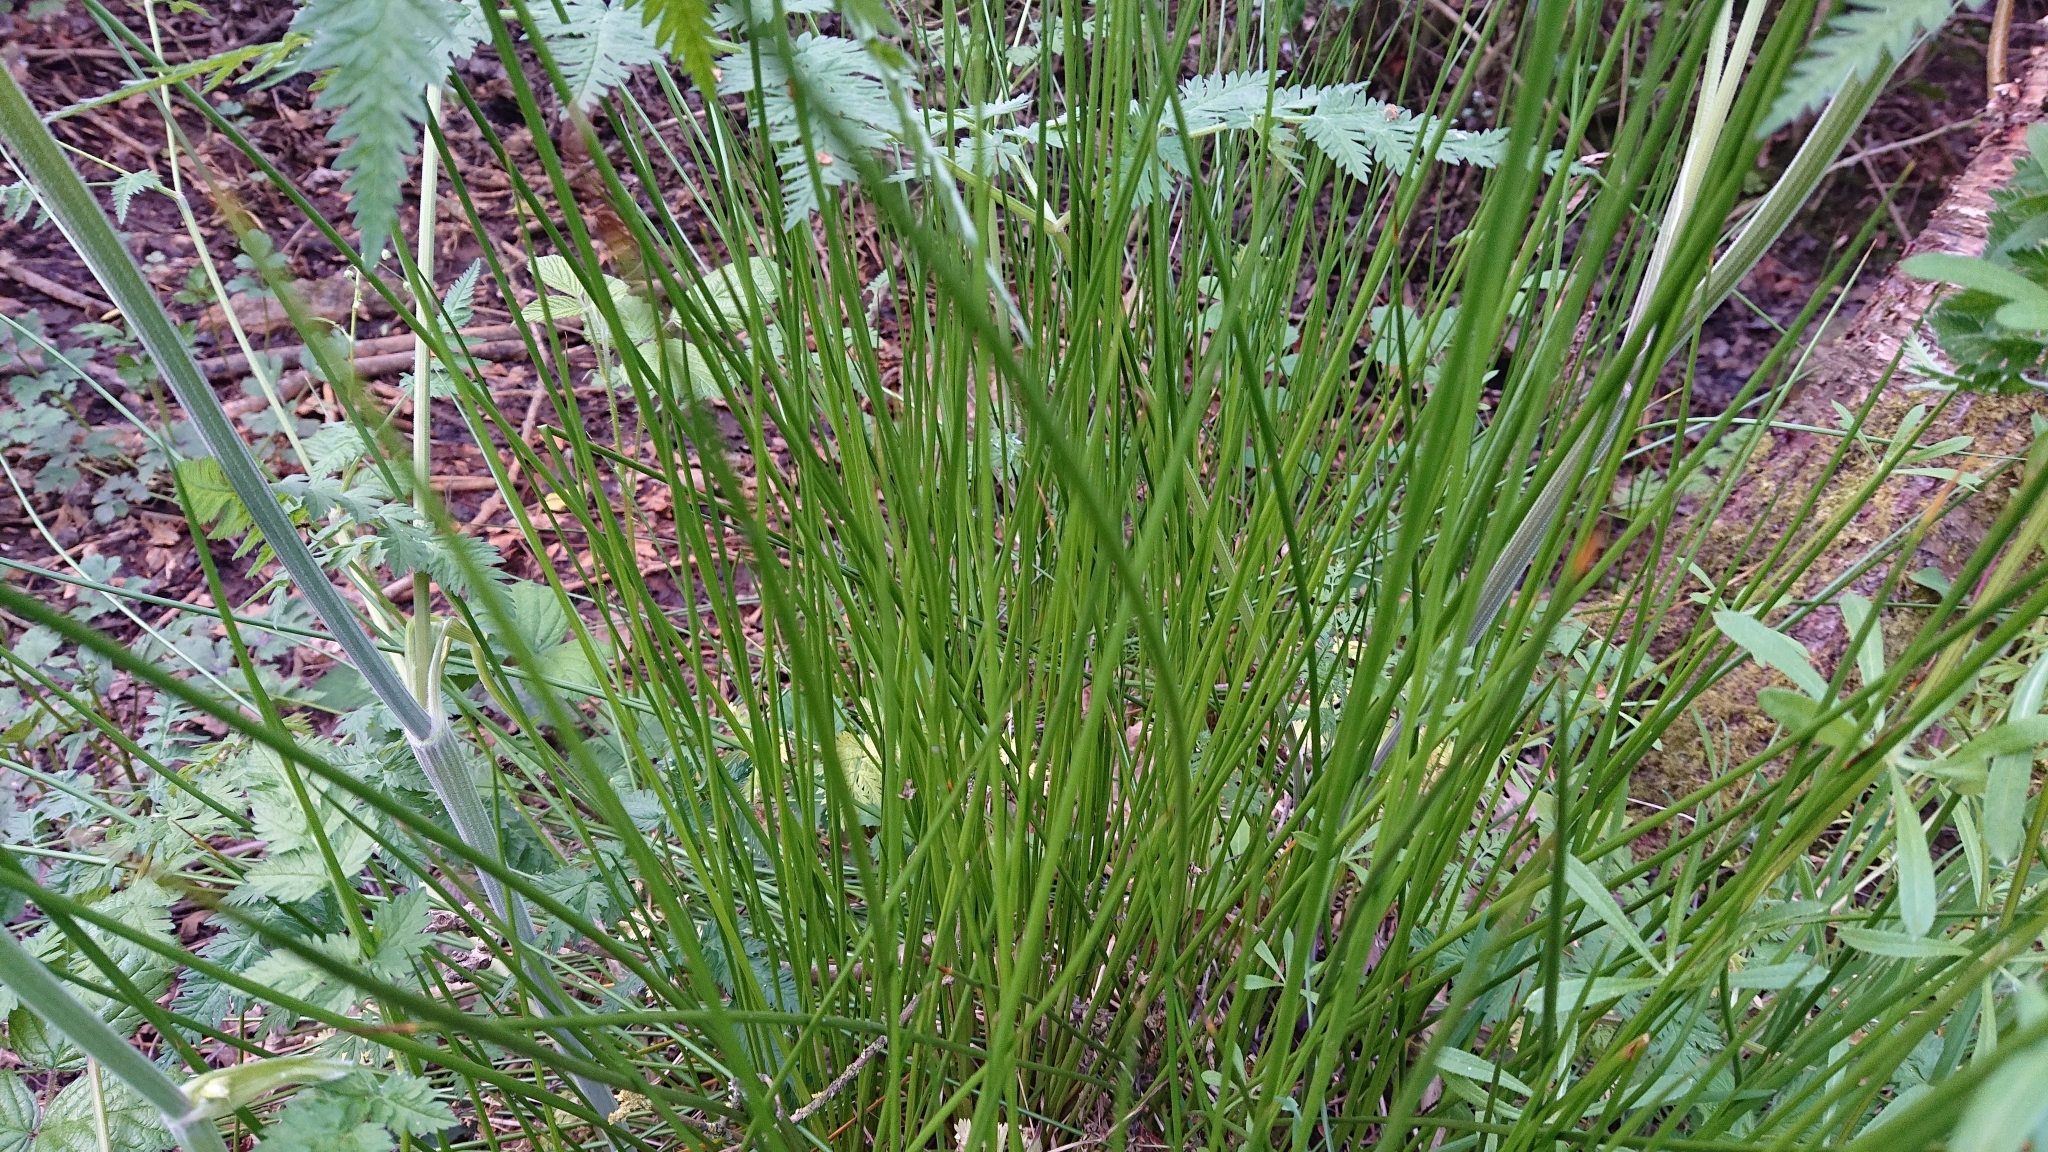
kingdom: Plantae
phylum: Tracheophyta
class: Liliopsida
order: Poales
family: Juncaceae
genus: Juncus
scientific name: Juncus effusus
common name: Soft rush
